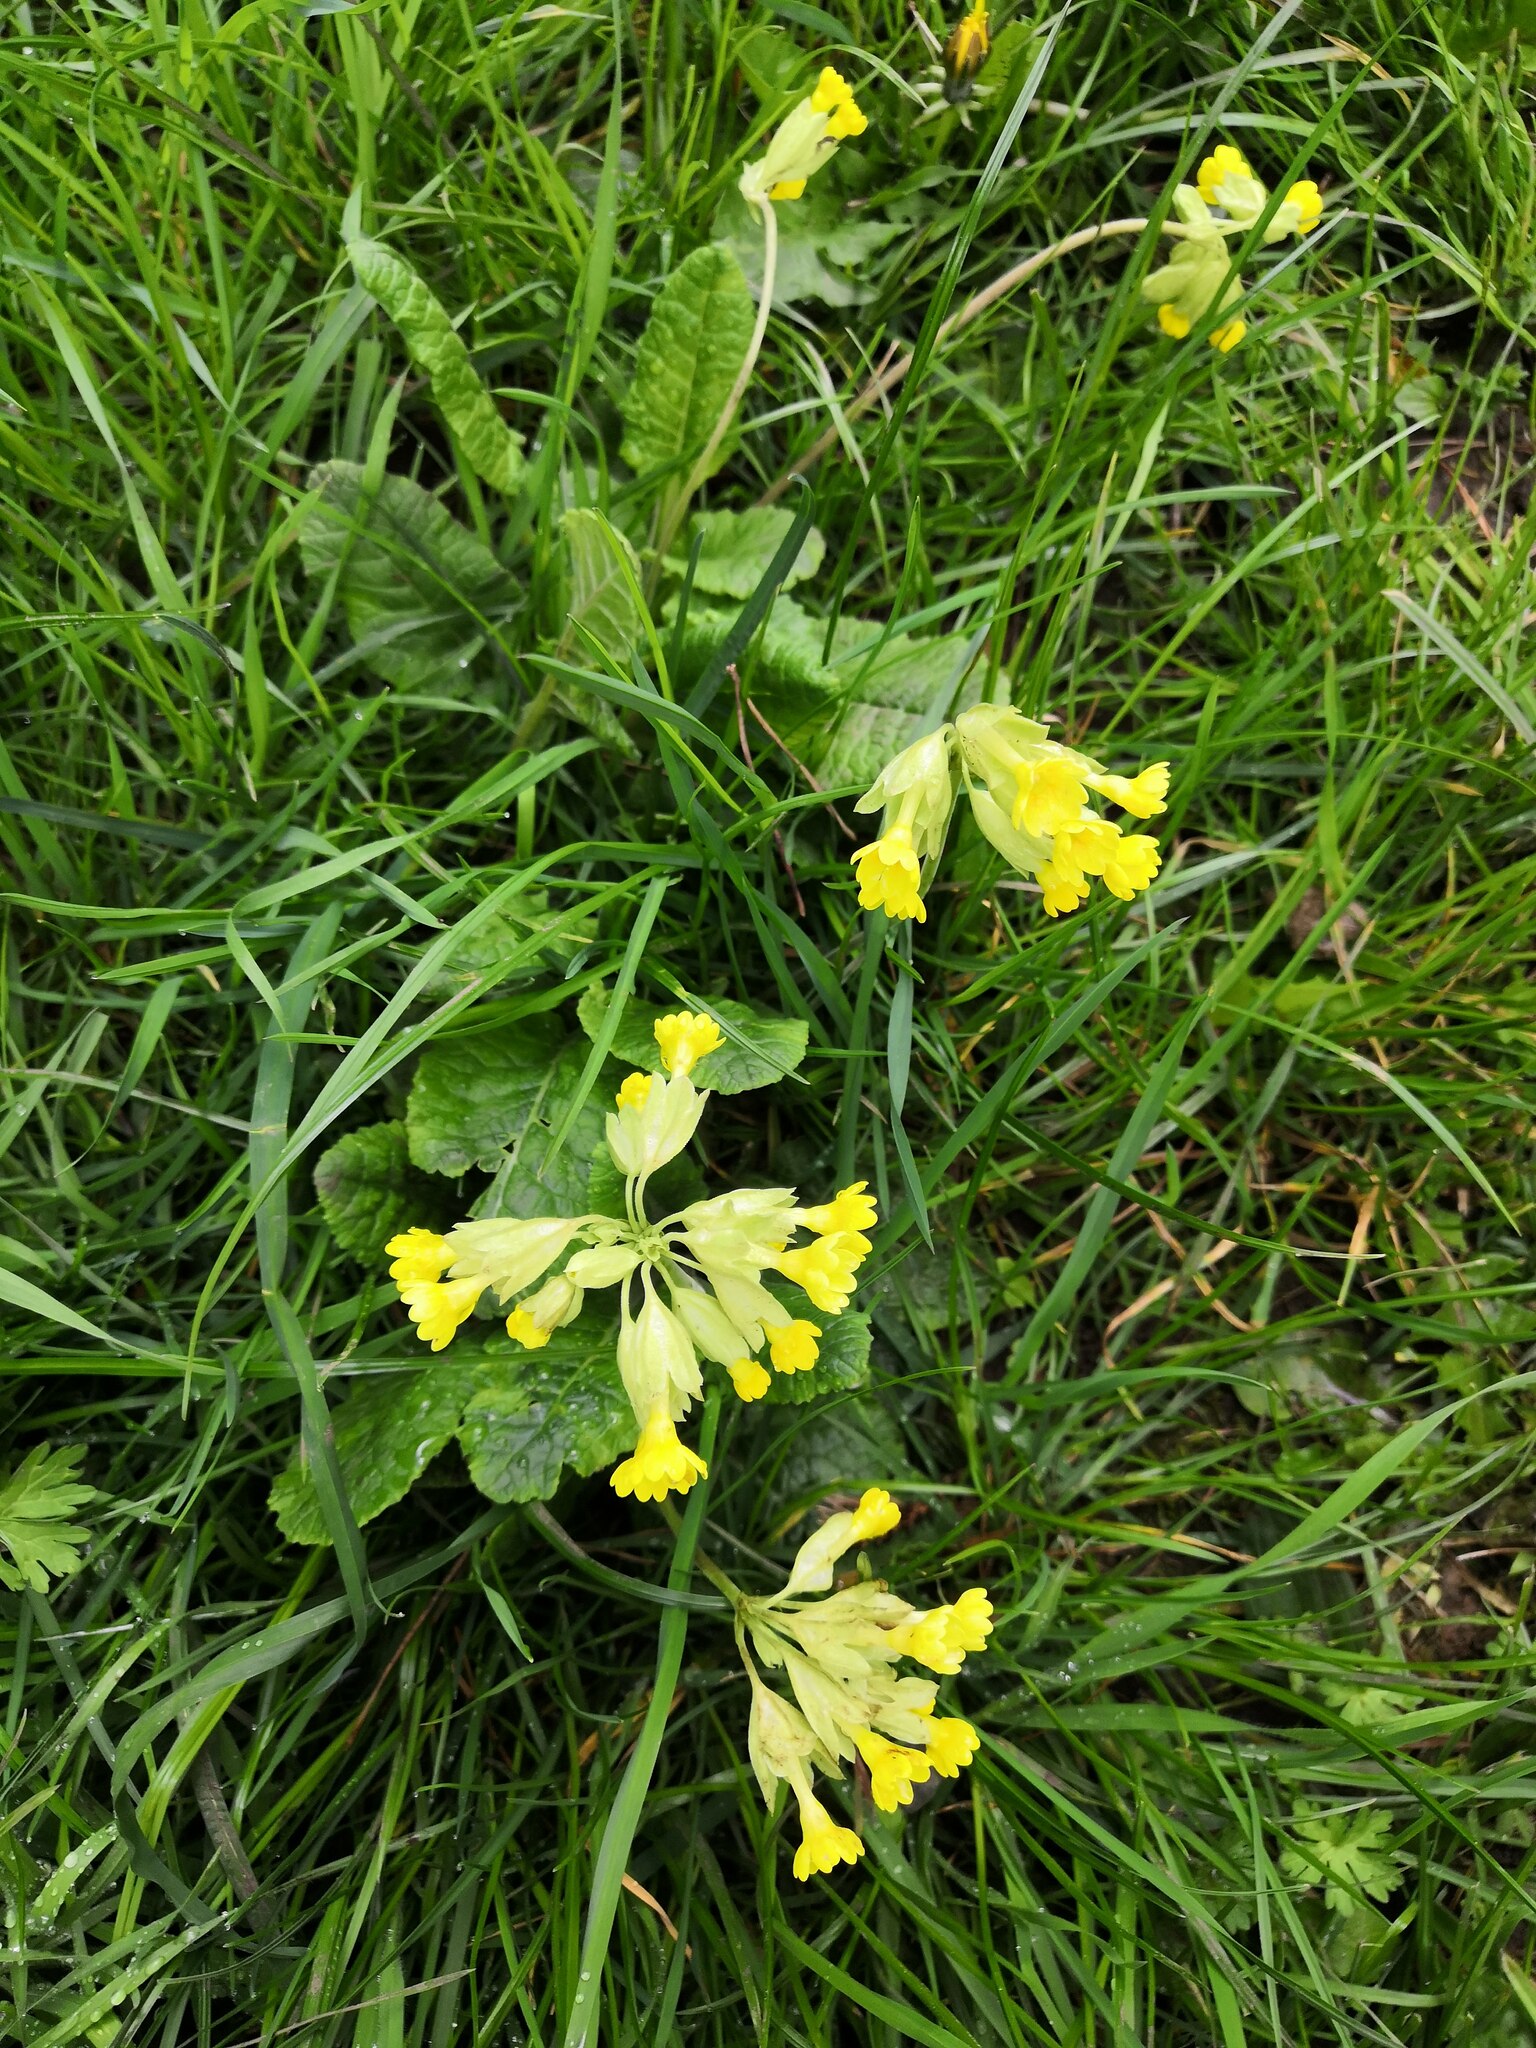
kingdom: Plantae
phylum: Tracheophyta
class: Magnoliopsida
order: Ericales
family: Primulaceae
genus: Primula
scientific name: Primula veris
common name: Cowslip
